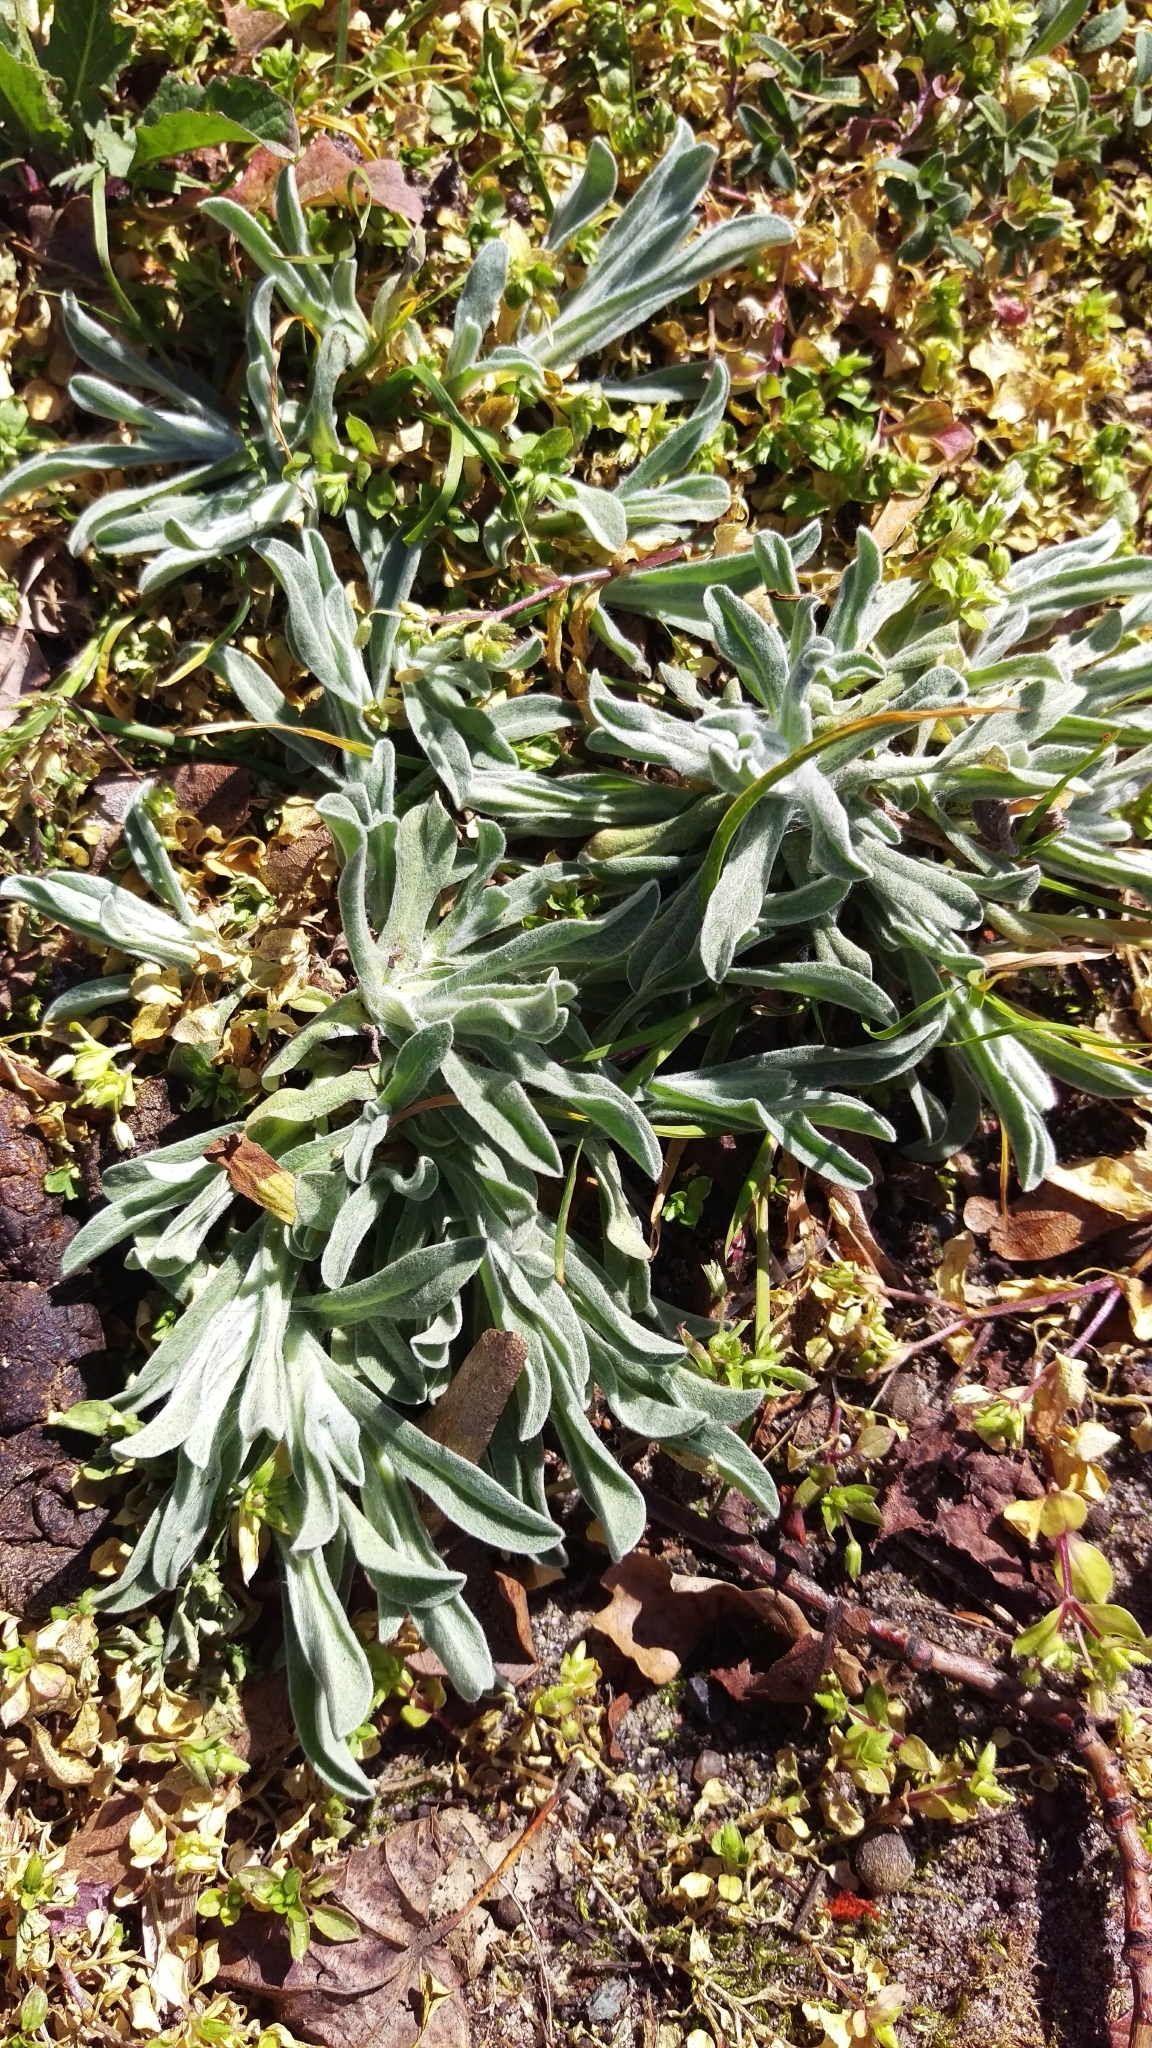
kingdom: Plantae
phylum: Tracheophyta
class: Magnoliopsida
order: Asterales
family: Asteraceae
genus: Helichrysum
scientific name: Helichrysum arenarium
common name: Strawflower
